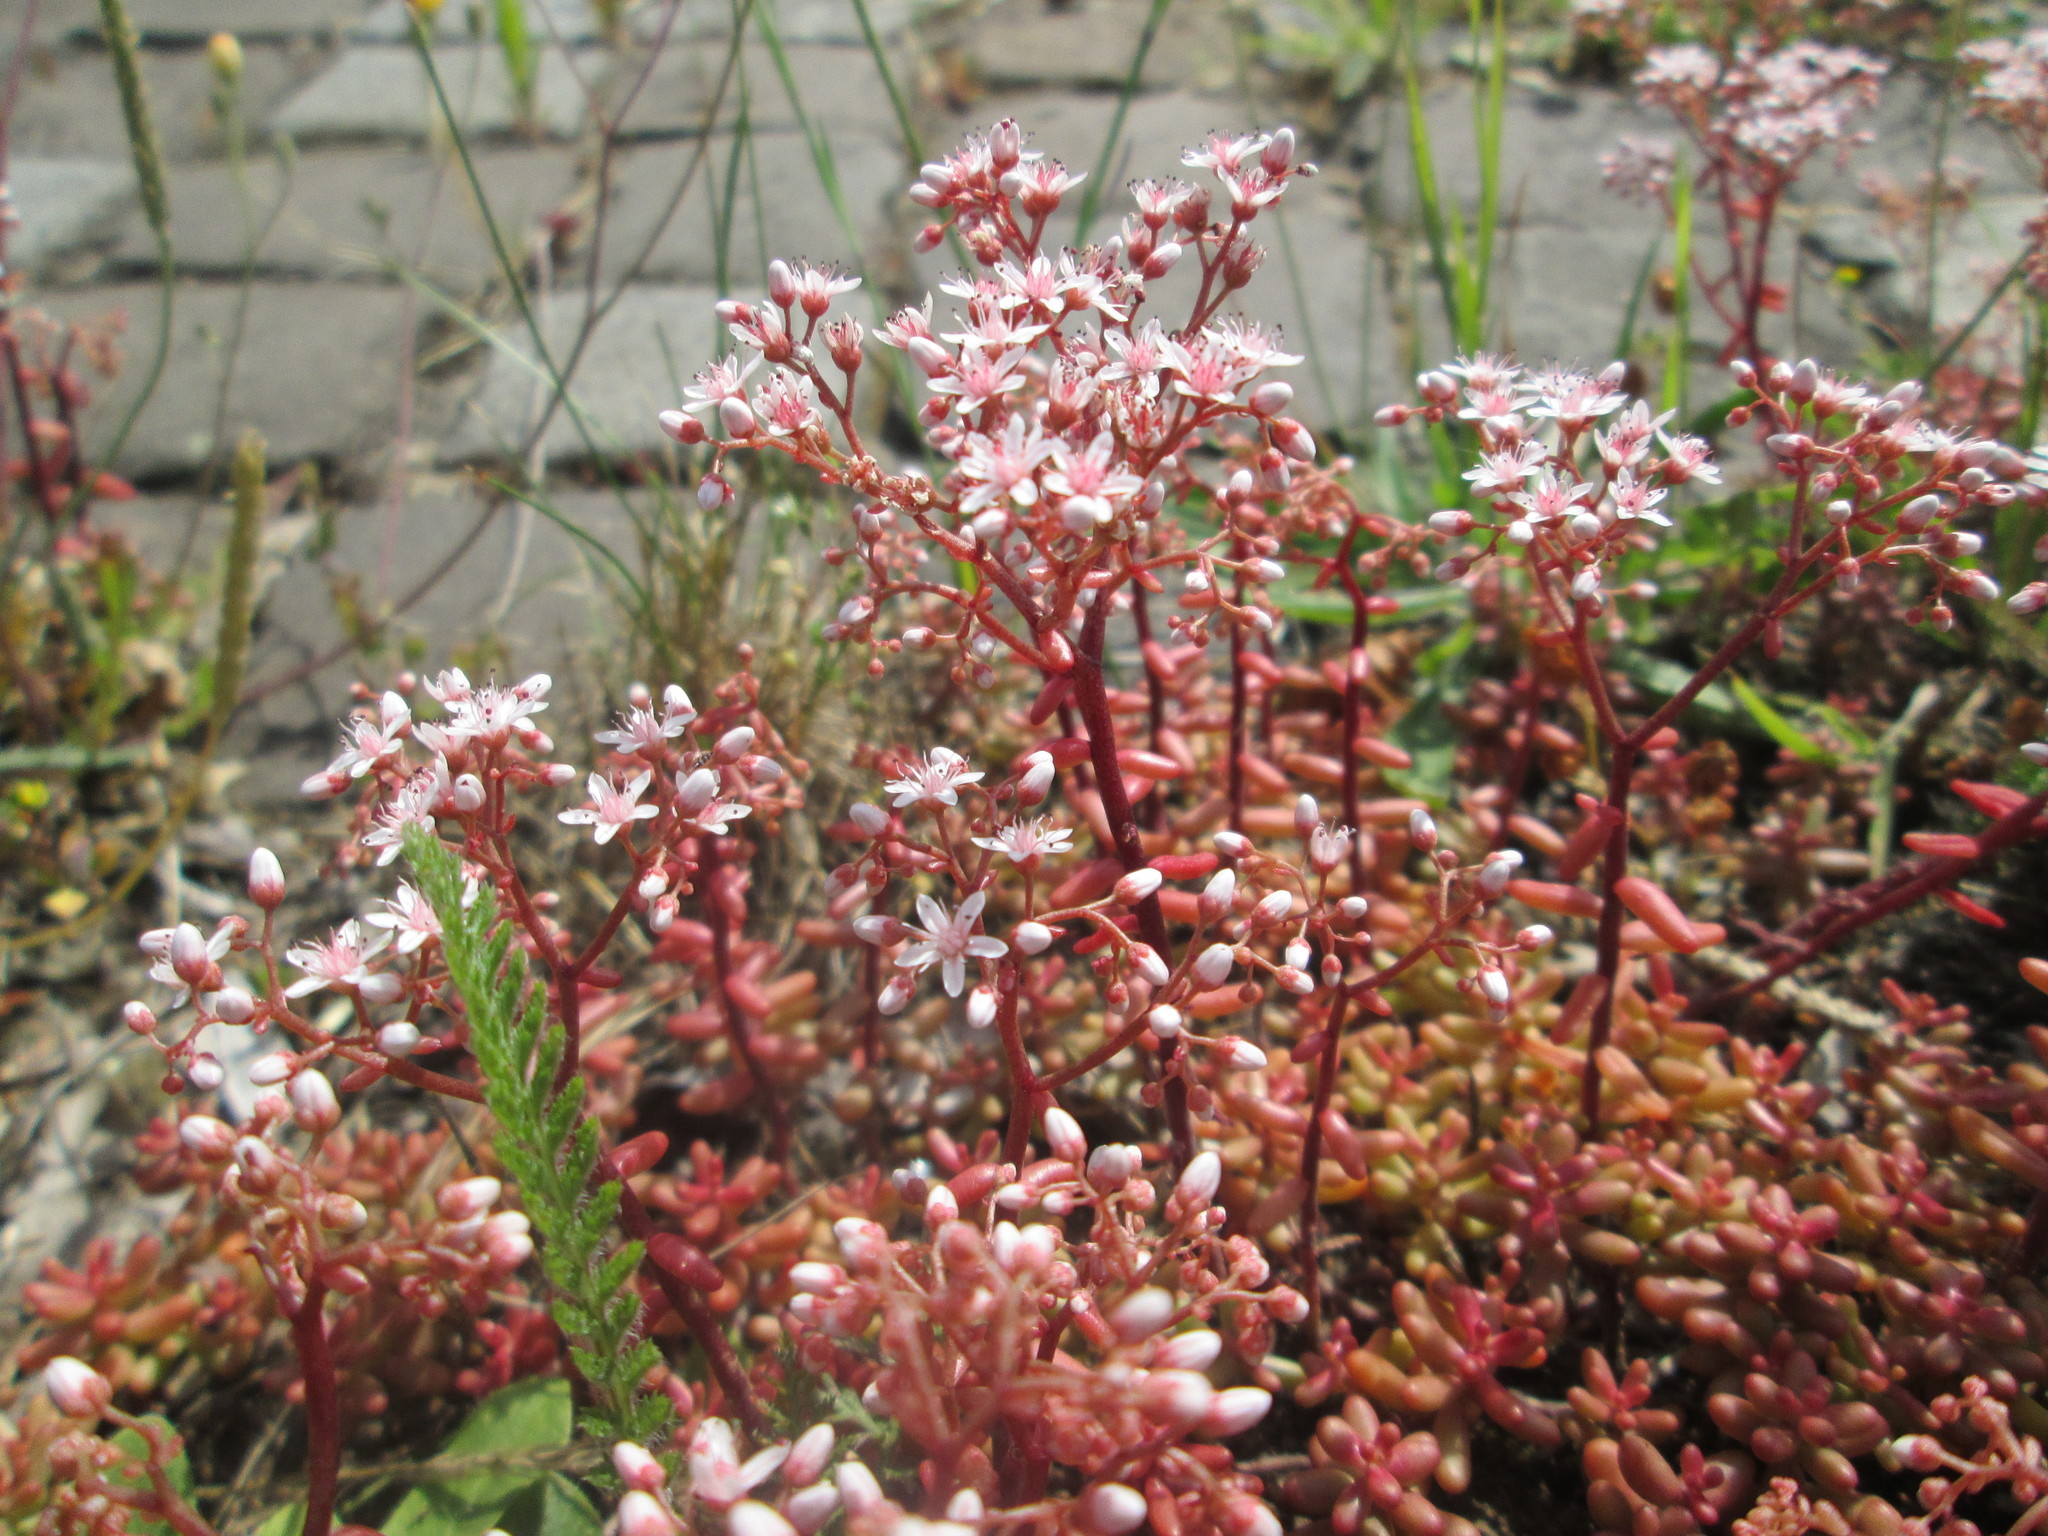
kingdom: Plantae
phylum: Tracheophyta
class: Magnoliopsida
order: Saxifragales
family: Crassulaceae
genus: Sedum
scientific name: Sedum album
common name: White stonecrop
